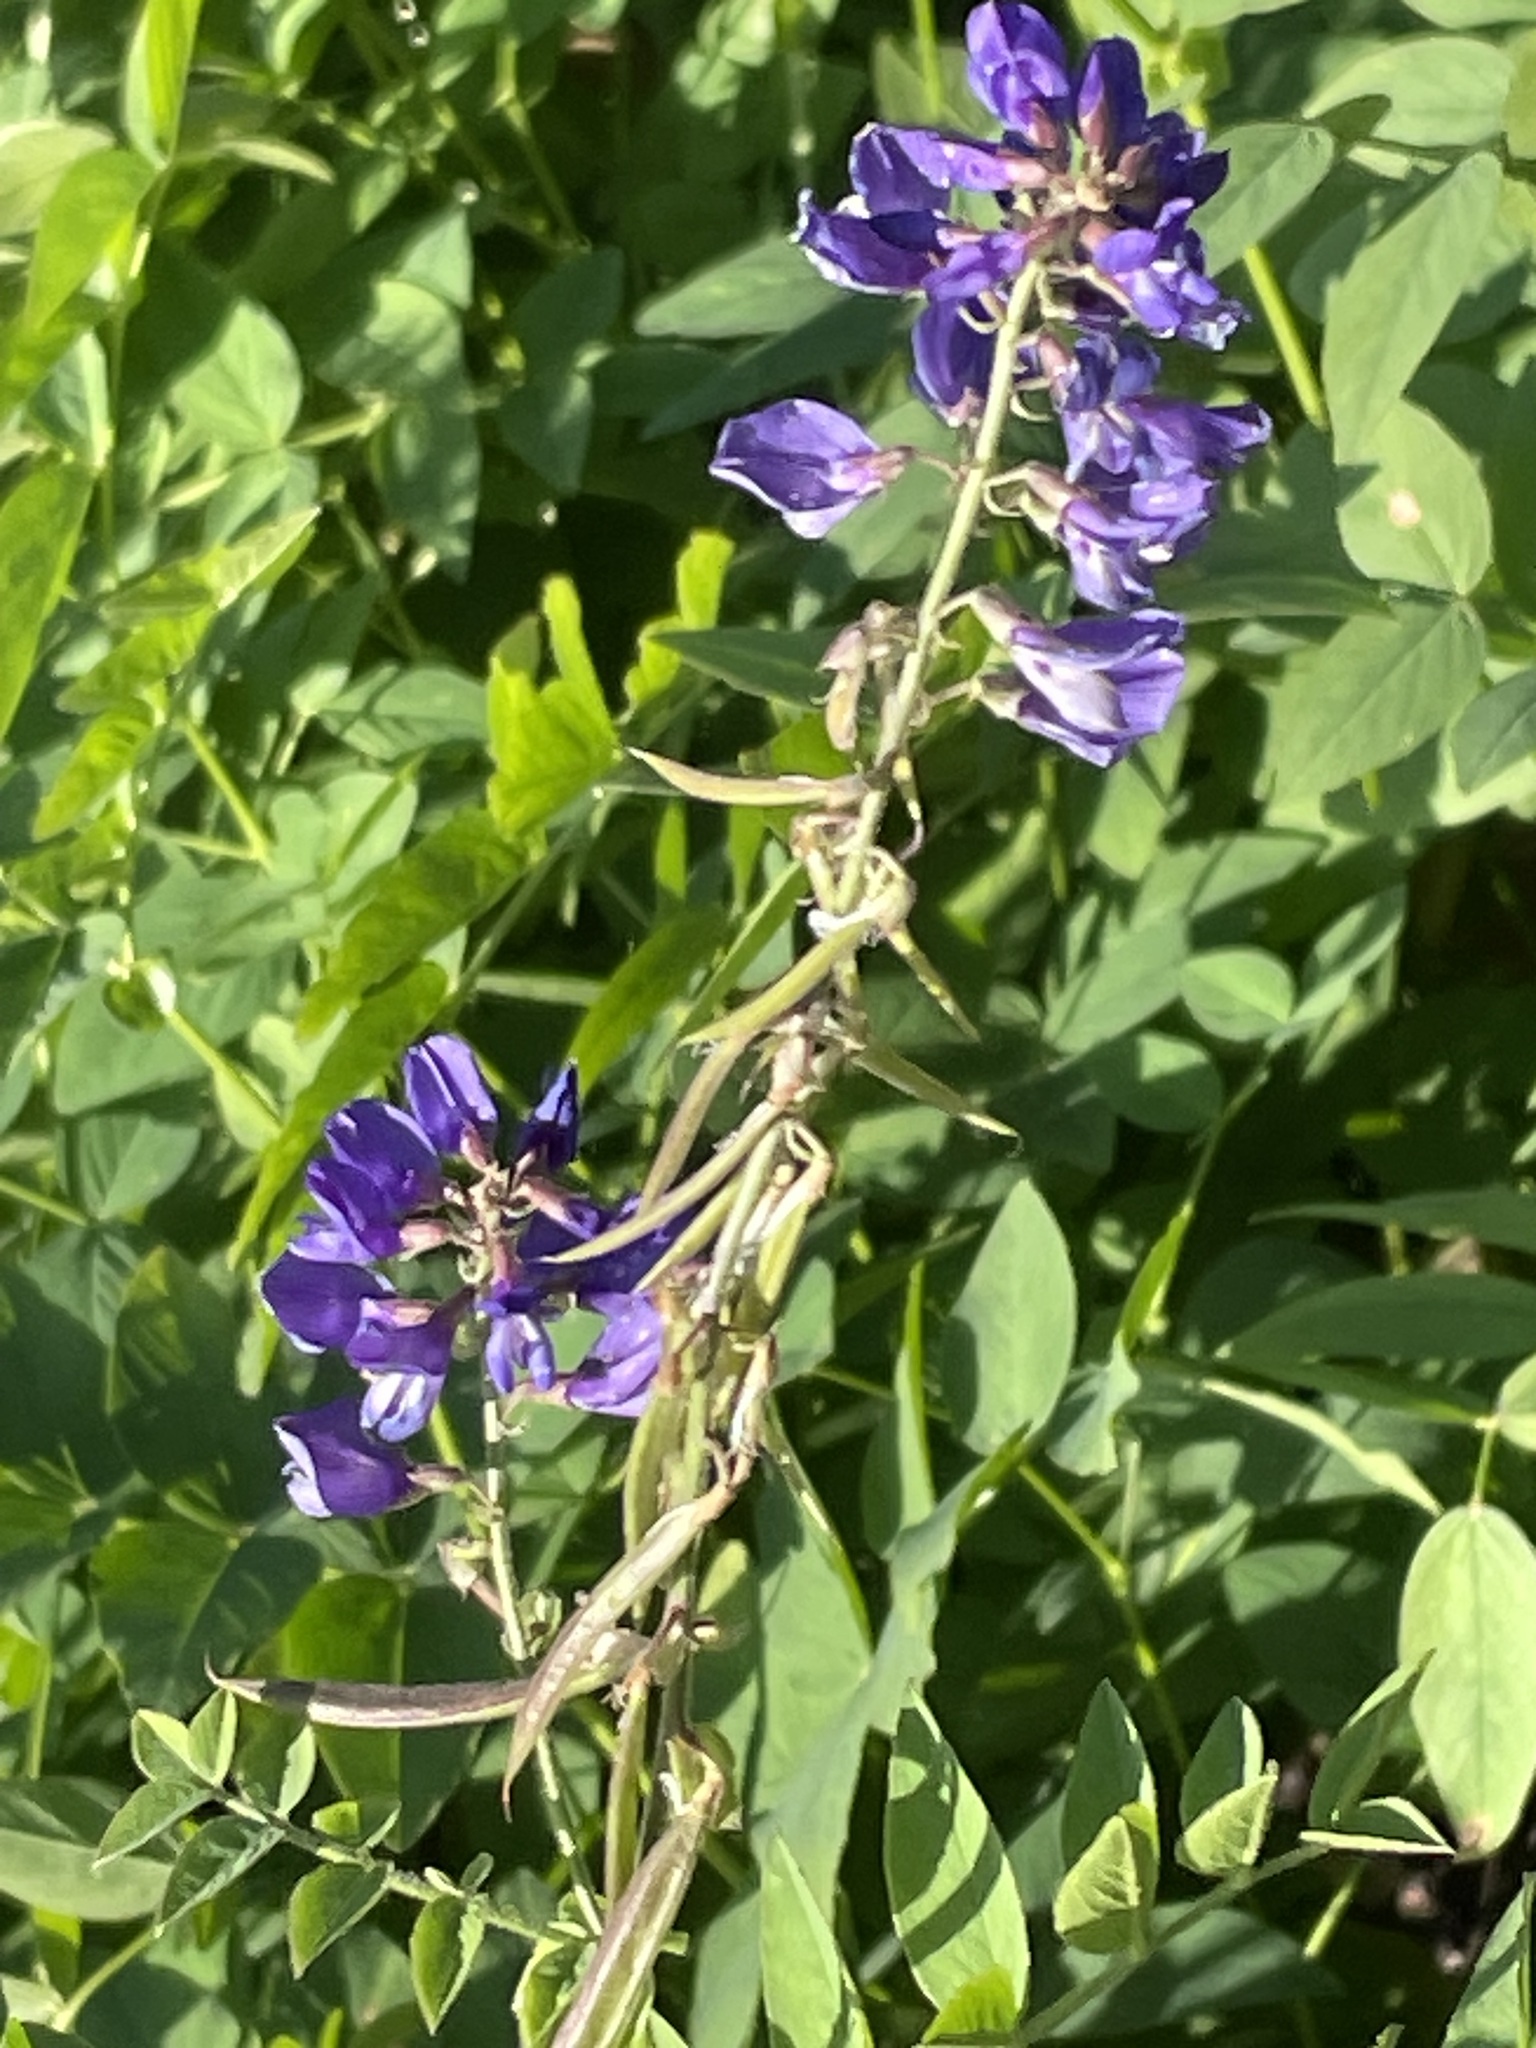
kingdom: Plantae
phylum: Tracheophyta
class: Magnoliopsida
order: Fabales
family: Fabaceae
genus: Galega
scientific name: Galega orientalis
